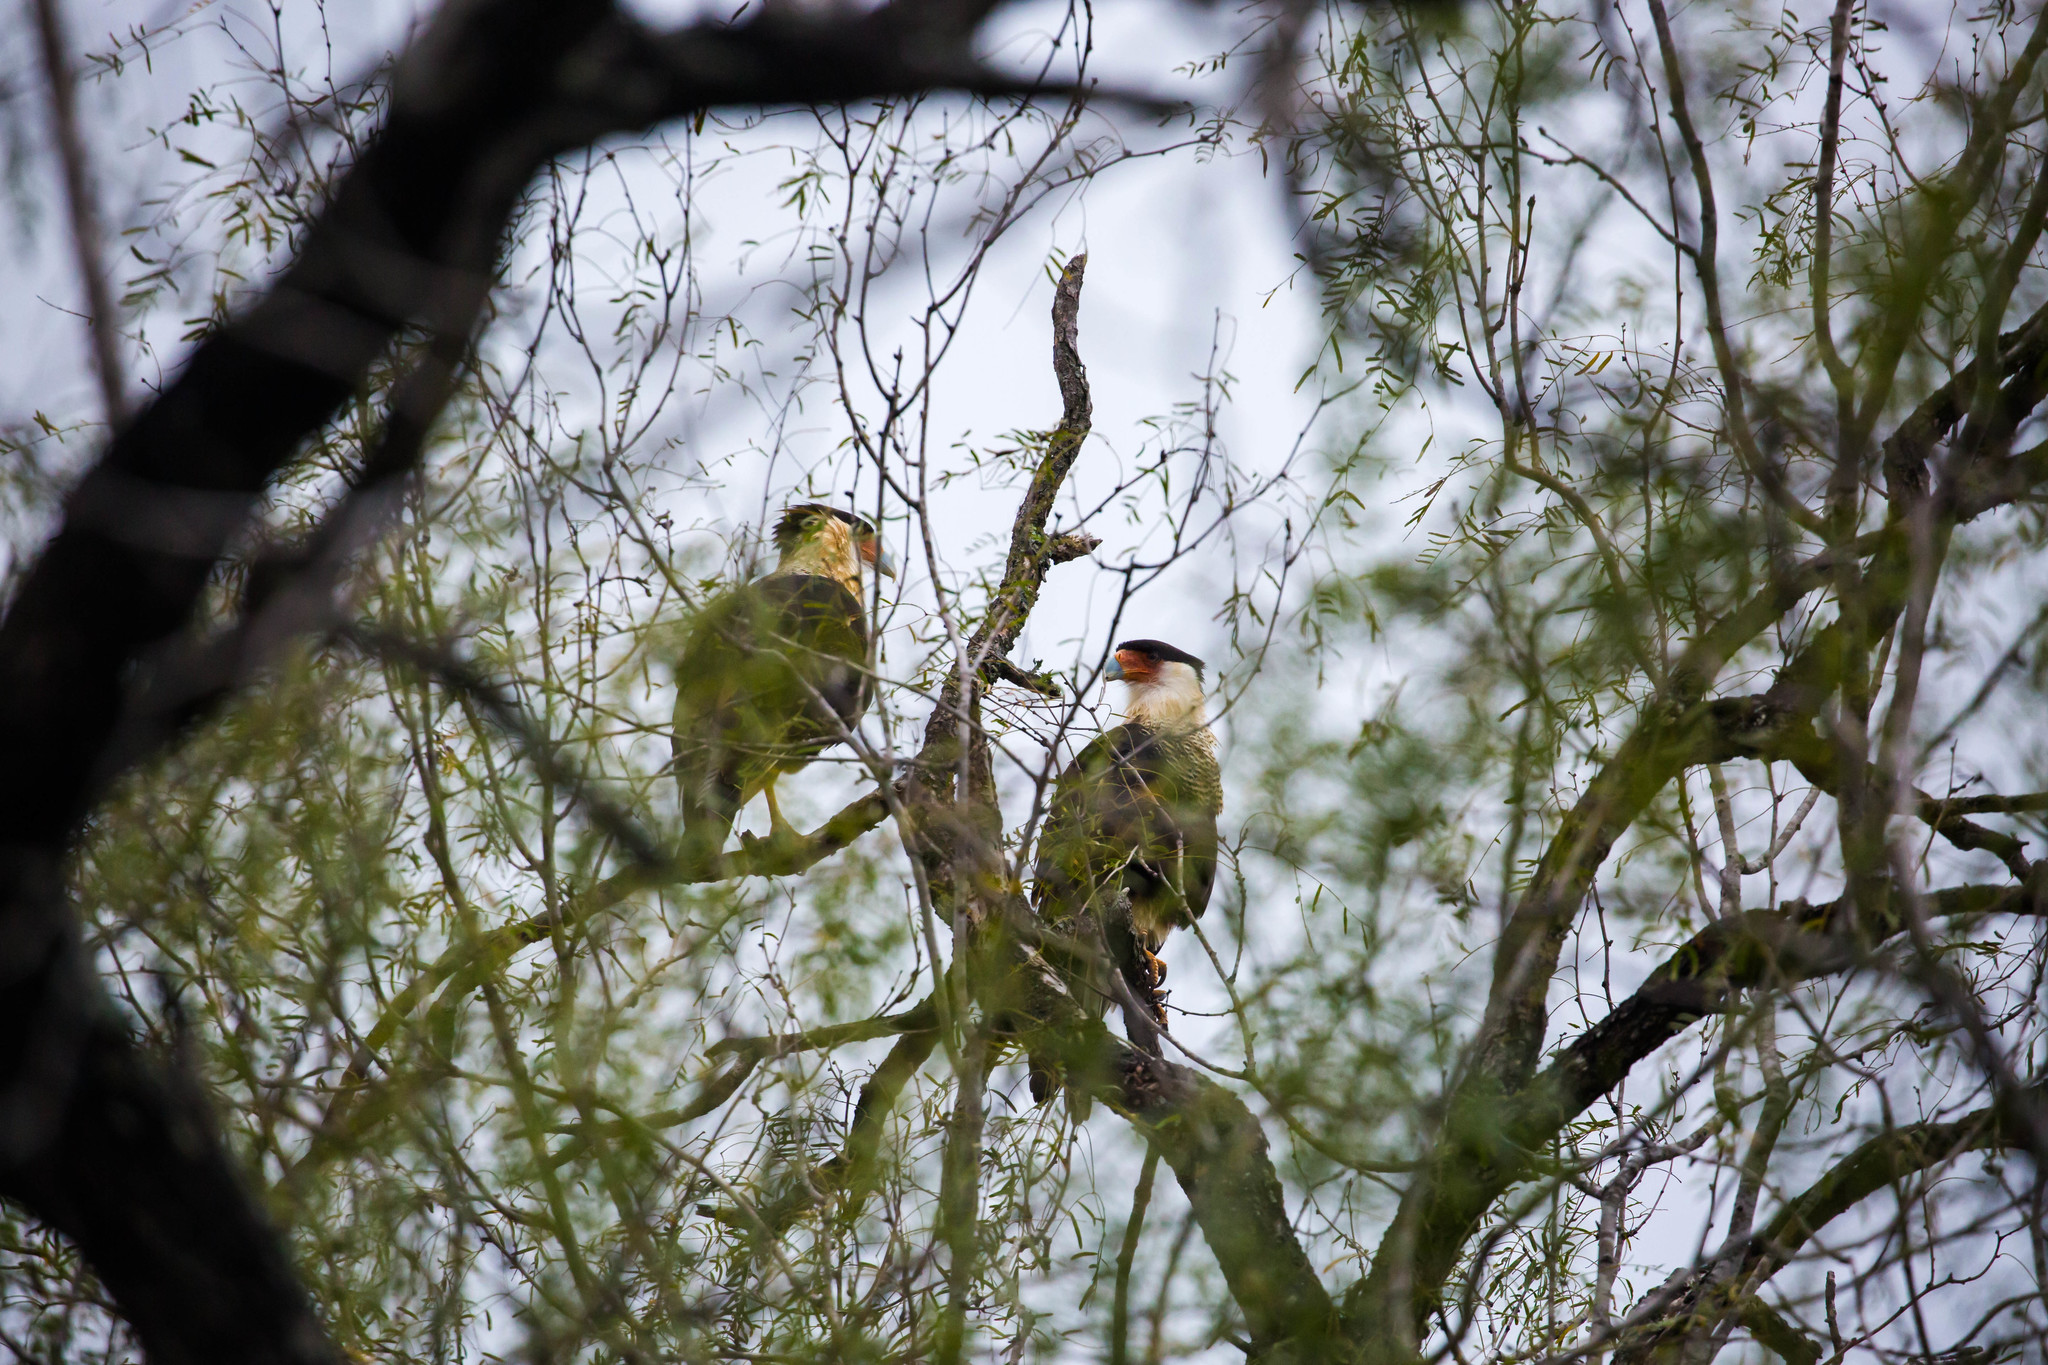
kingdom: Animalia
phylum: Chordata
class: Aves
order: Falconiformes
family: Falconidae
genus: Caracara
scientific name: Caracara plancus
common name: Southern caracara
